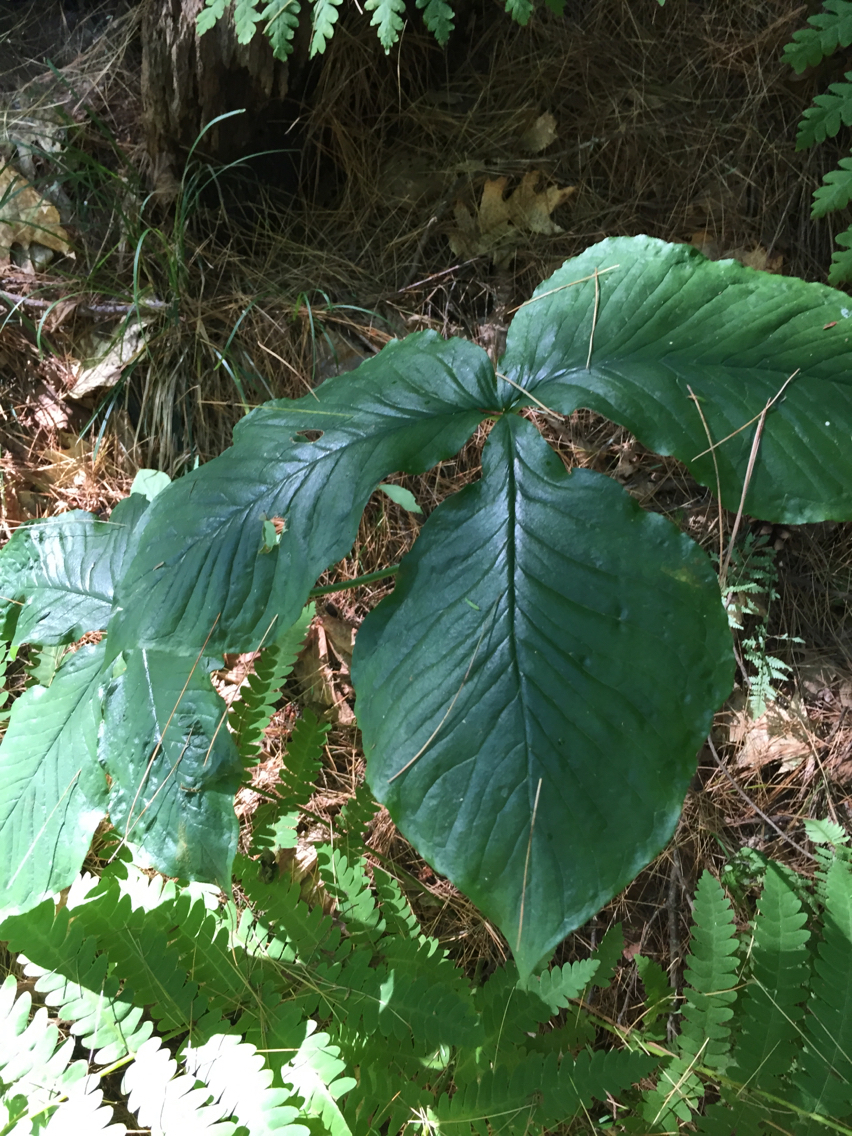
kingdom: Plantae
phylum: Tracheophyta
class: Liliopsida
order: Alismatales
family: Araceae
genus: Arisaema
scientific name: Arisaema triphyllum
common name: Jack-in-the-pulpit
